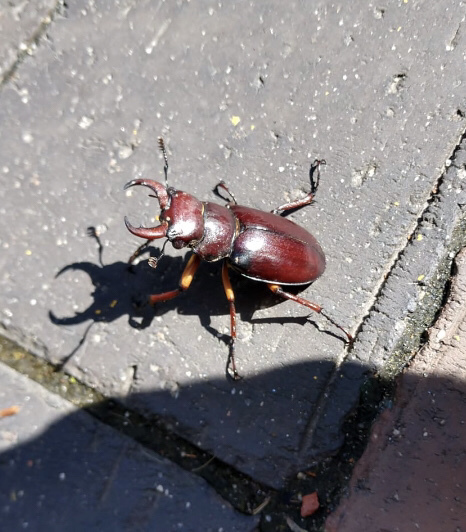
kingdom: Animalia
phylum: Arthropoda
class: Insecta
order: Coleoptera
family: Lucanidae
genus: Lucanus
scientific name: Lucanus capreolus
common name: Stag beetle
